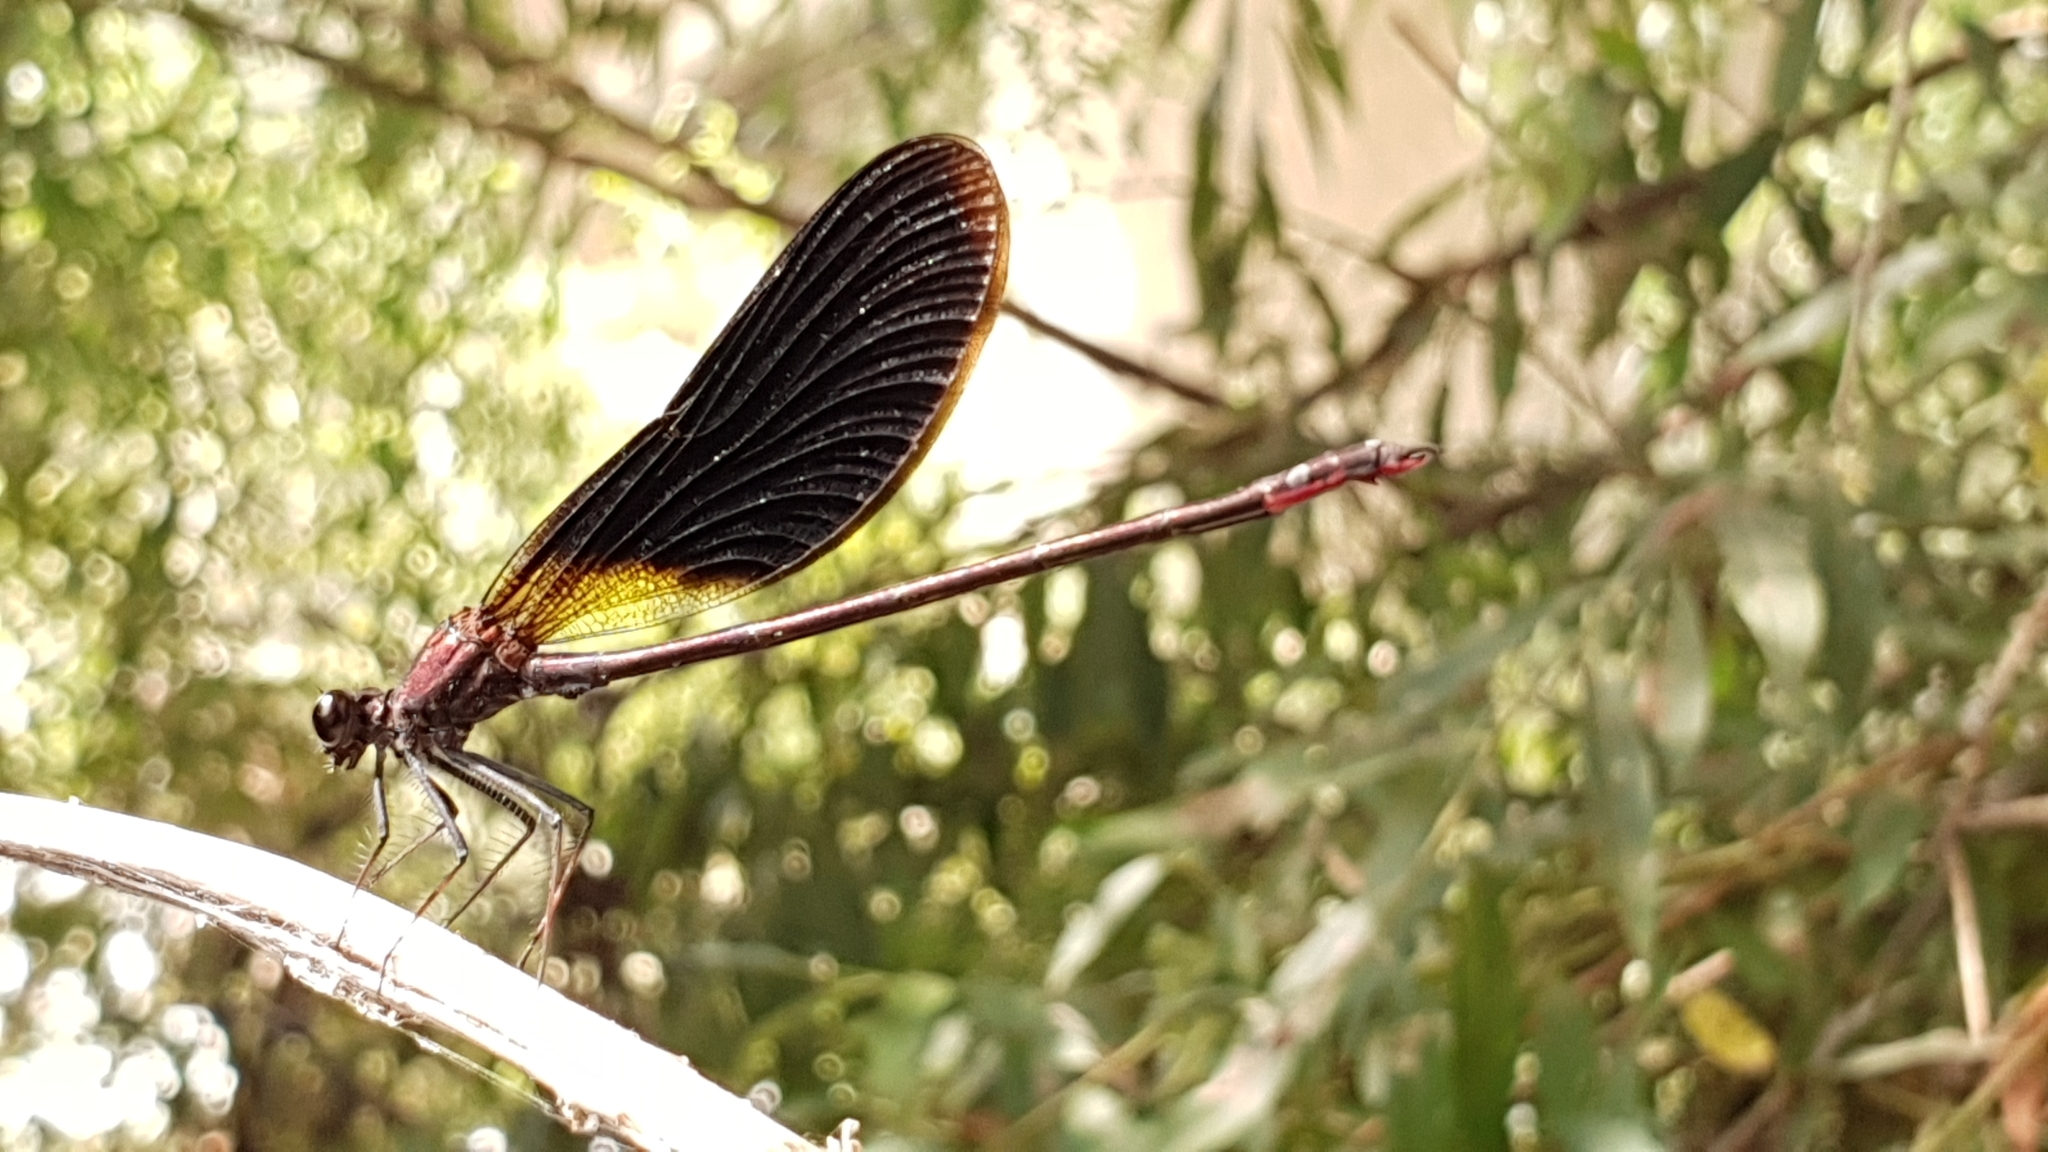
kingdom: Animalia
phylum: Arthropoda
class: Insecta
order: Odonata
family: Calopterygidae
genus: Calopteryx
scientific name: Calopteryx haemorrhoidalis
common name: Copper demoiselle
